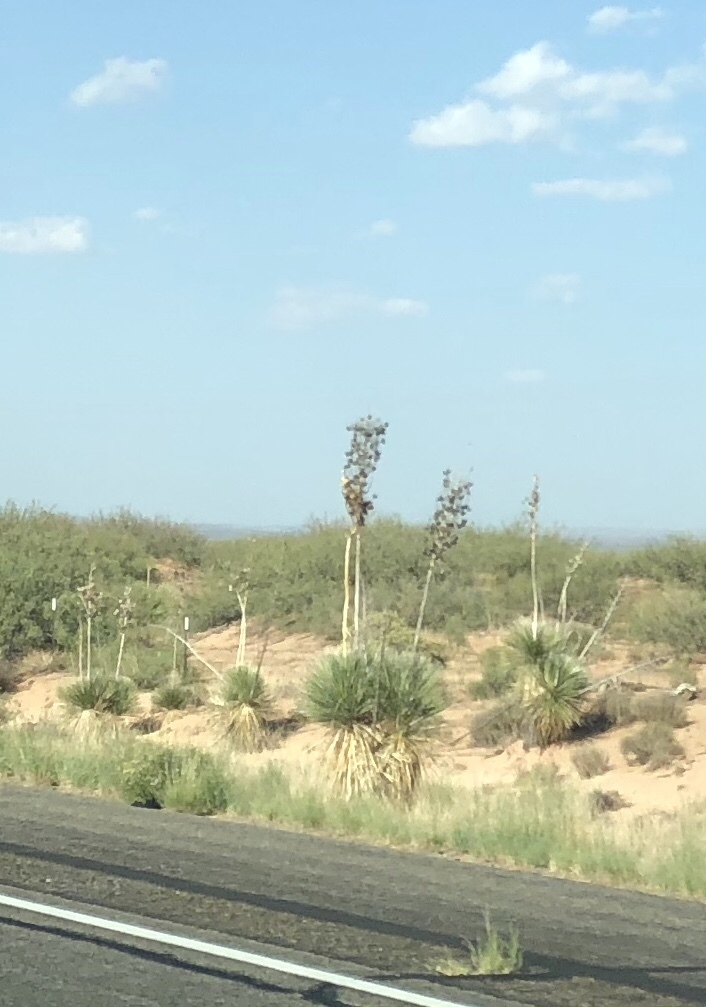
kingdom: Plantae
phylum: Tracheophyta
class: Liliopsida
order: Asparagales
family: Asparagaceae
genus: Yucca
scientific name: Yucca elata
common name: Palmella
